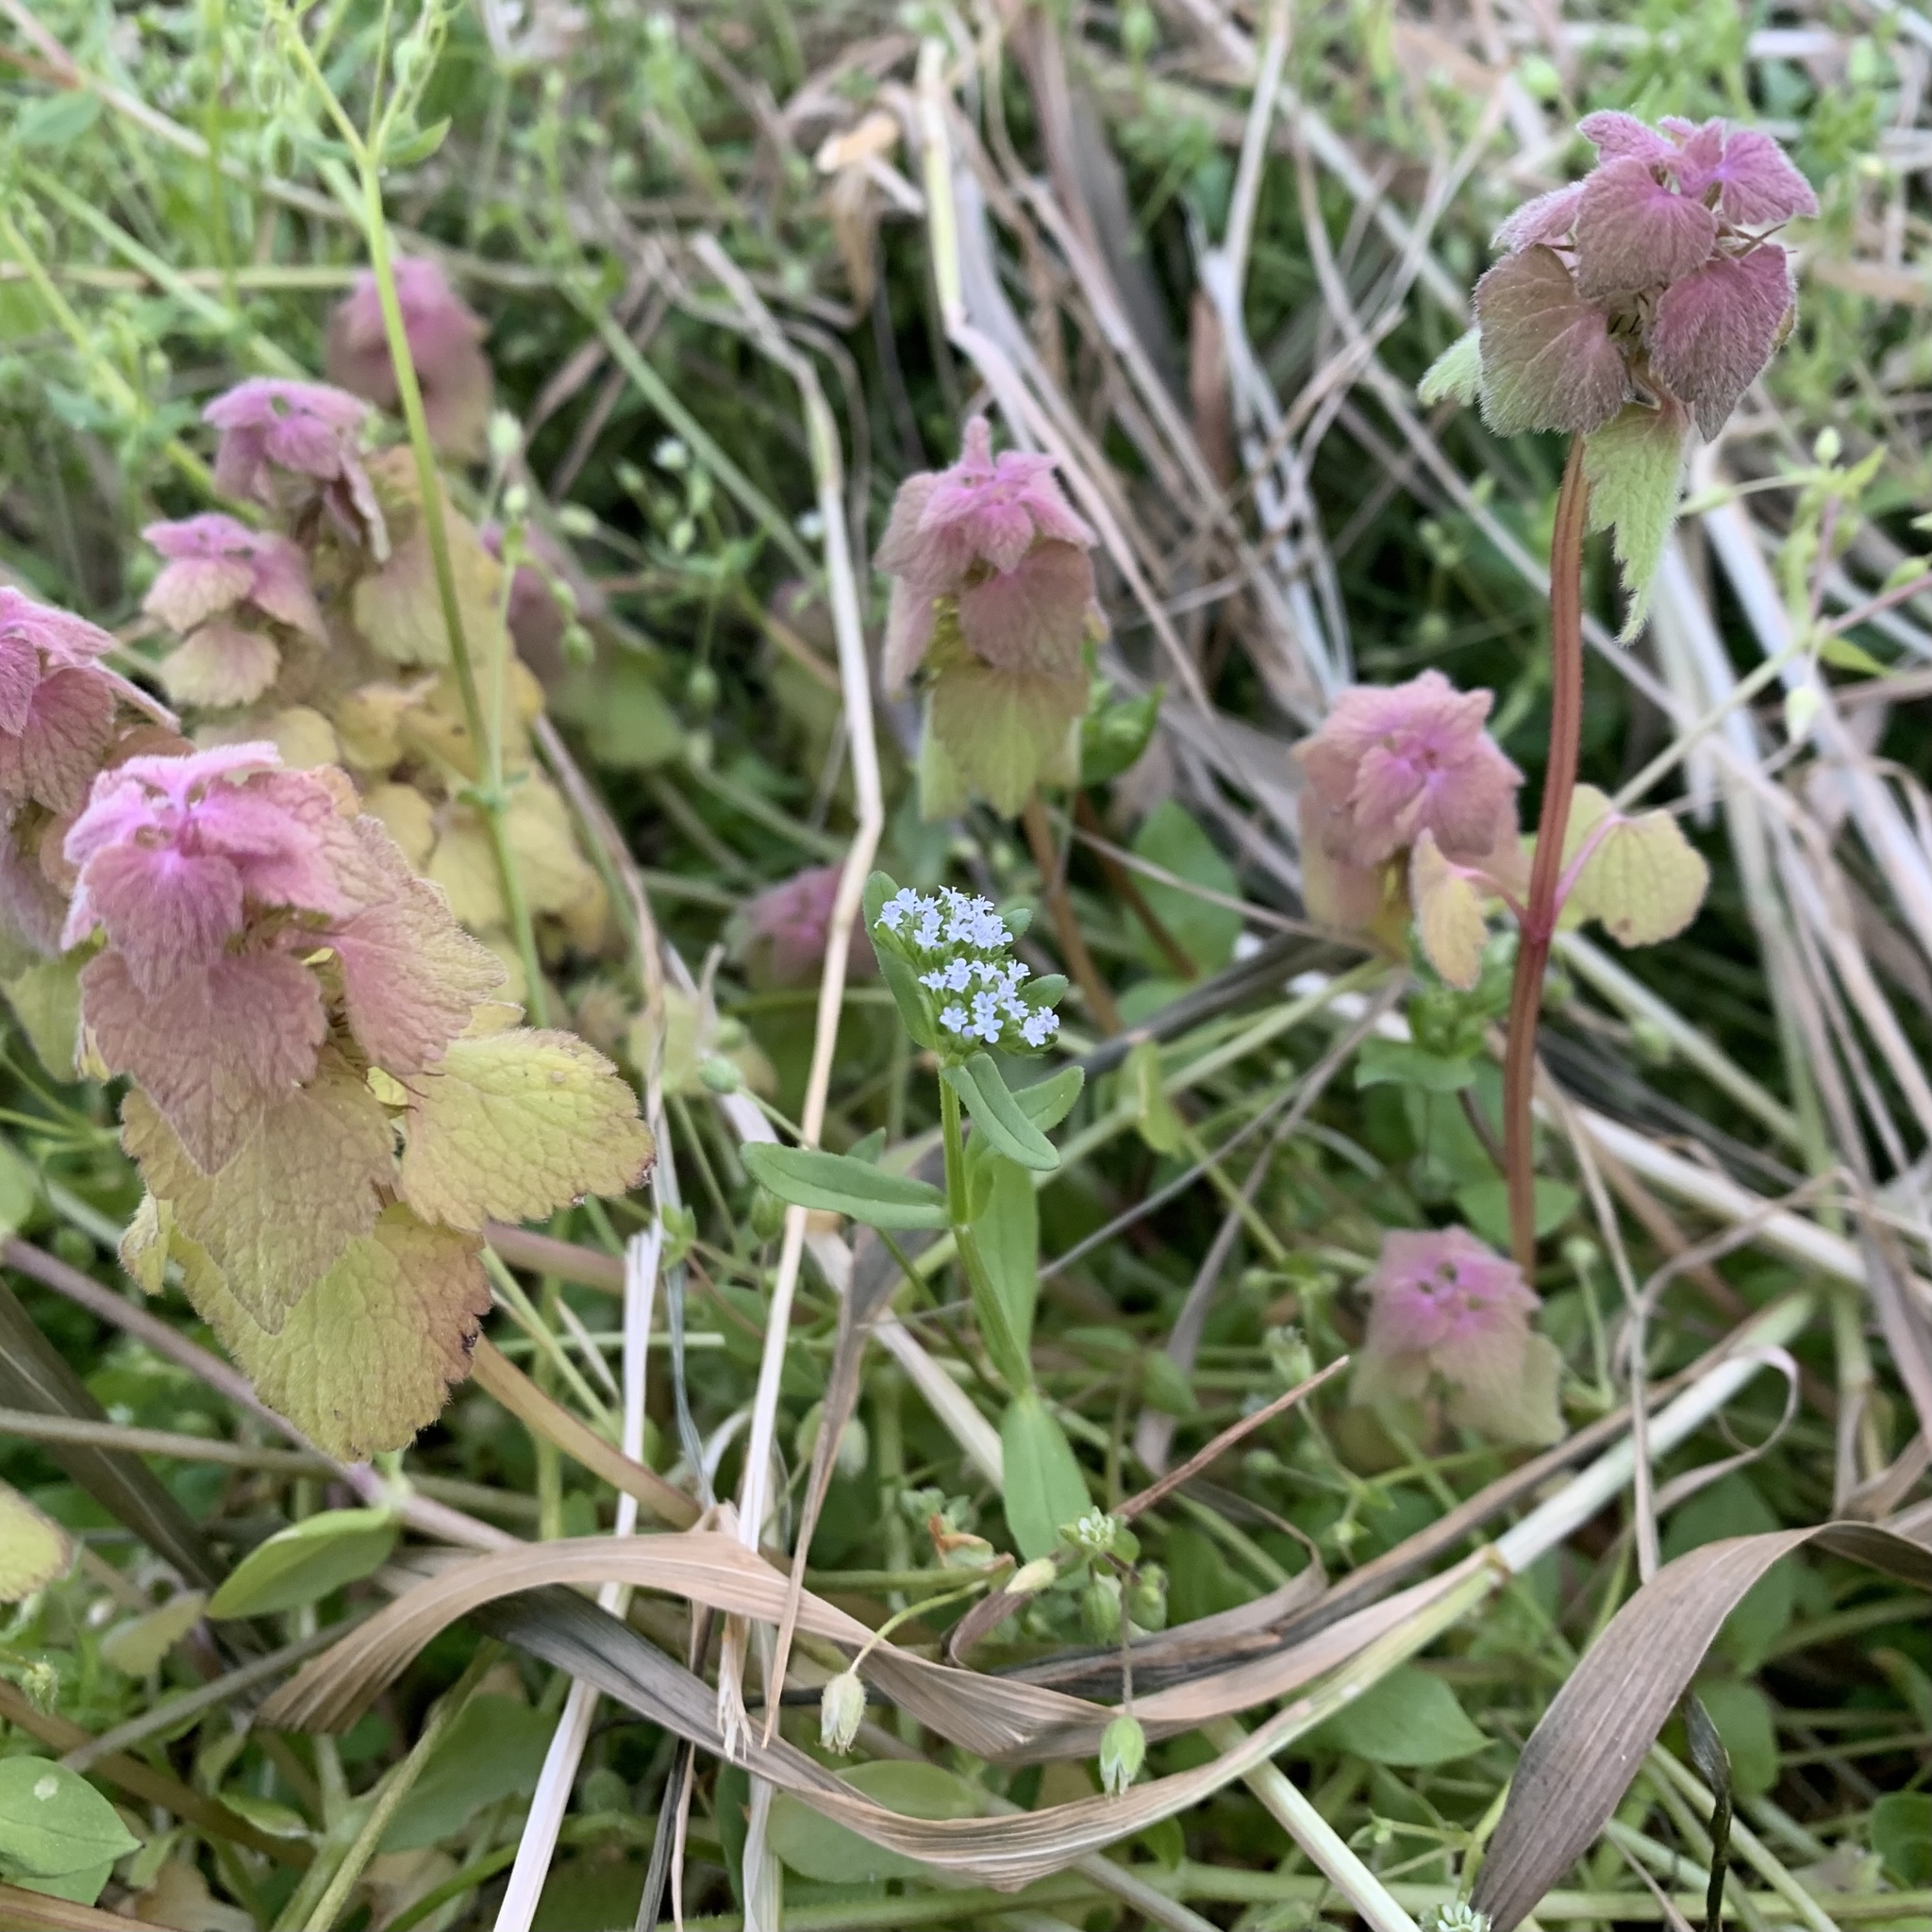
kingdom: Plantae
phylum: Tracheophyta
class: Magnoliopsida
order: Dipsacales
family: Caprifoliaceae
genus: Valerianella
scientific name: Valerianella locusta
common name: Common cornsalad
